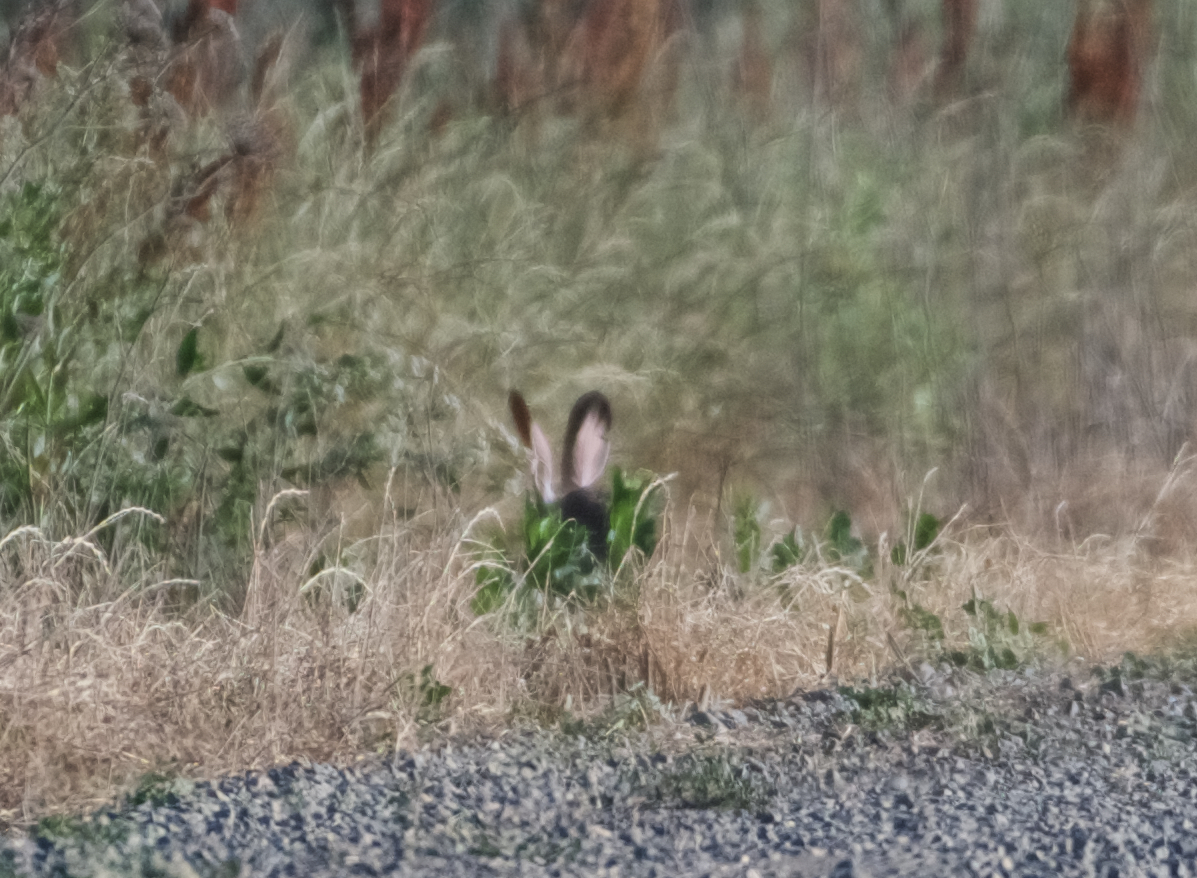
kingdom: Animalia
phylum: Chordata
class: Mammalia
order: Lagomorpha
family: Leporidae
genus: Lepus
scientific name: Lepus californicus
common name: Black-tailed jackrabbit
